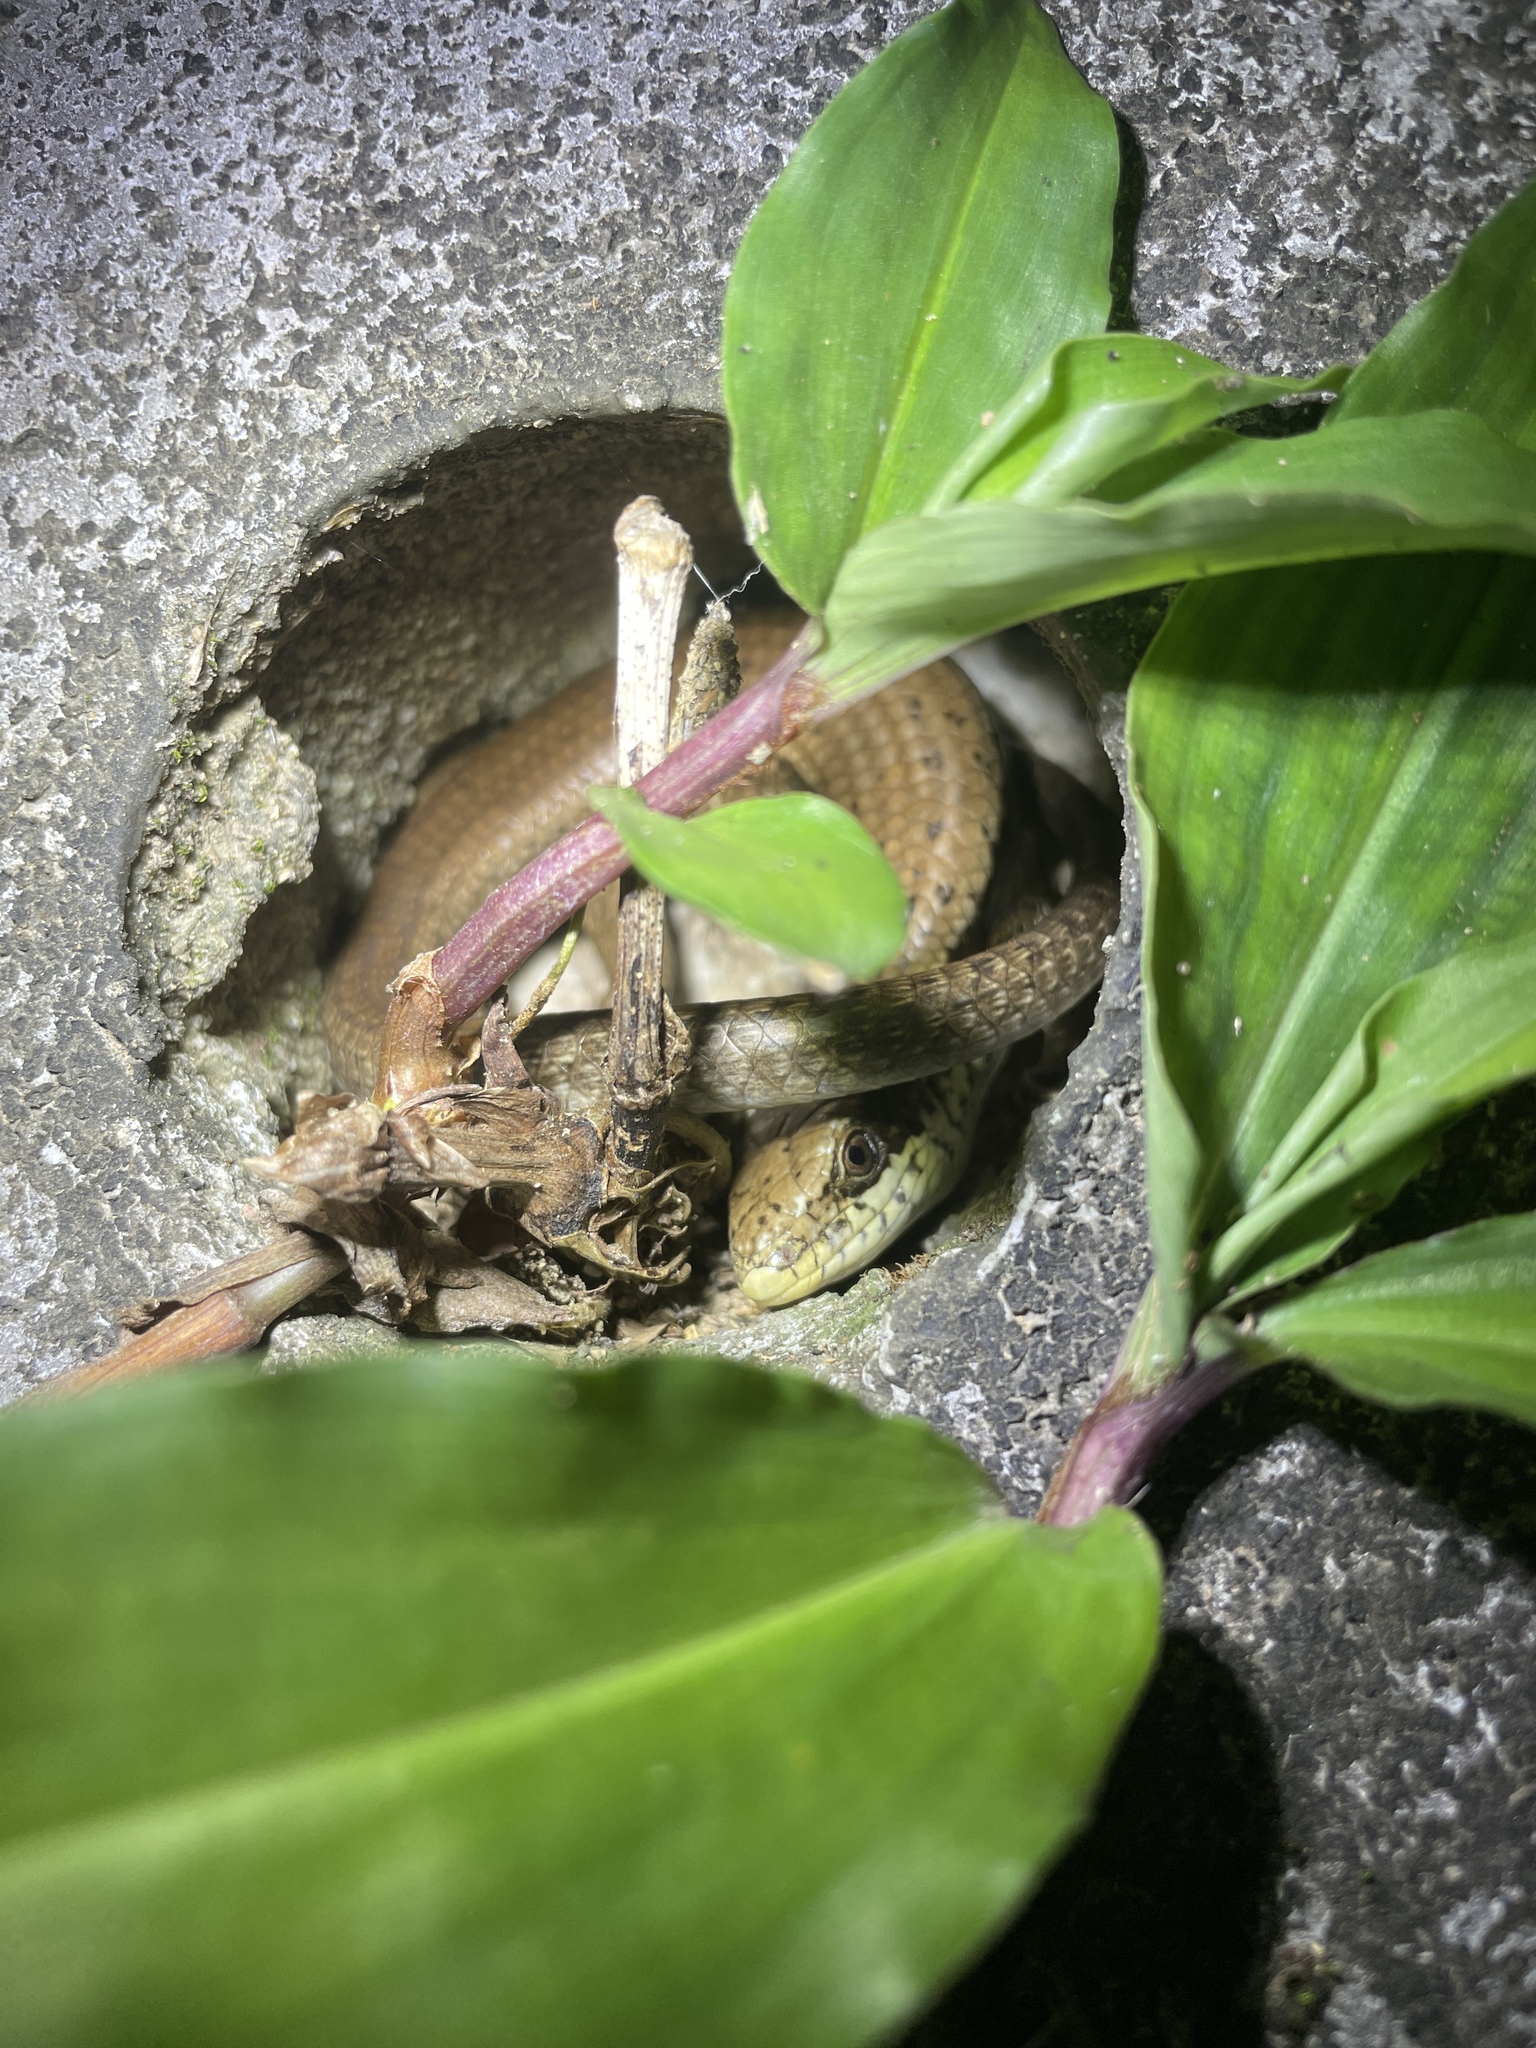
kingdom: Animalia
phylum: Chordata
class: Squamata
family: Scincidae
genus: Eutropis
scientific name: Eutropis longicaudata
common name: Long-tailed sun skink
